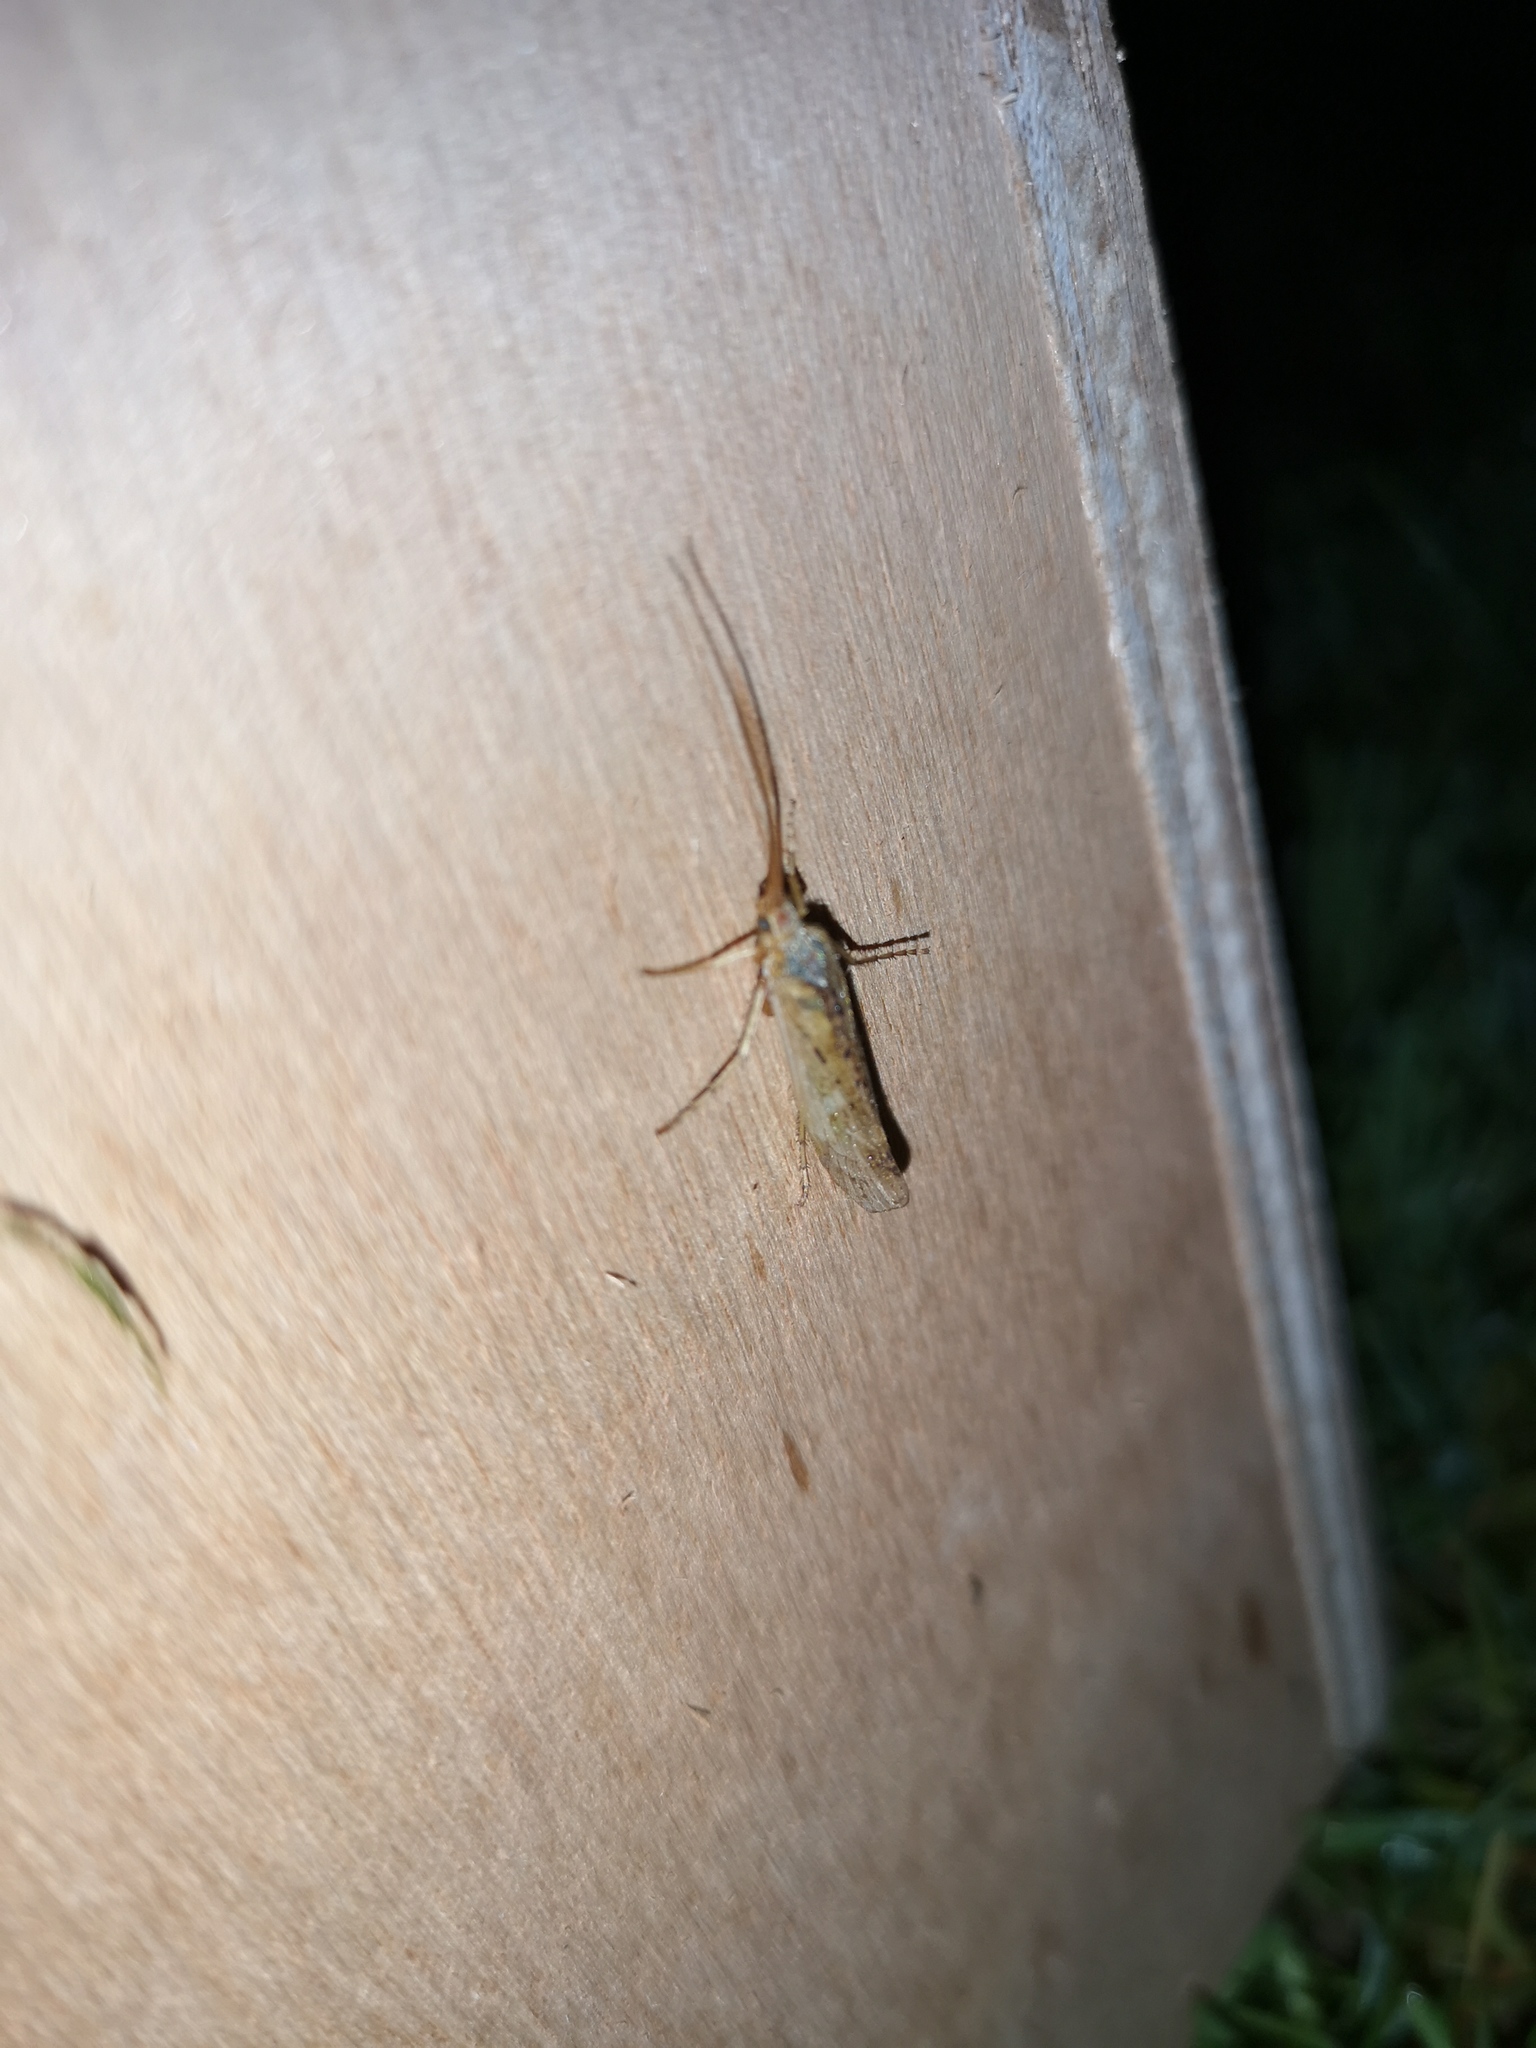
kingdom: Animalia
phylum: Arthropoda
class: Insecta
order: Trichoptera
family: Limnephilidae
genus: Limnephilus
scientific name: Limnephilus flavicornis
